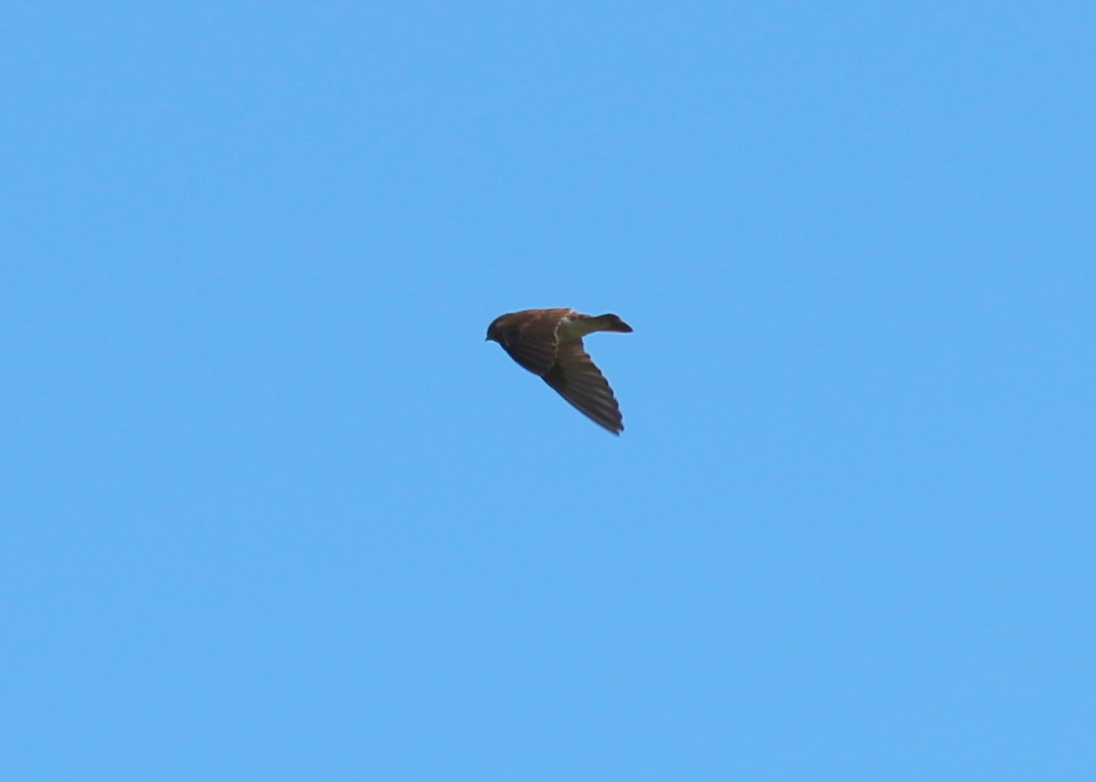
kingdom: Animalia
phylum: Chordata
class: Aves
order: Passeriformes
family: Hirundinidae
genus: Stelgidopteryx
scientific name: Stelgidopteryx serripennis
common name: Northern rough-winged swallow
